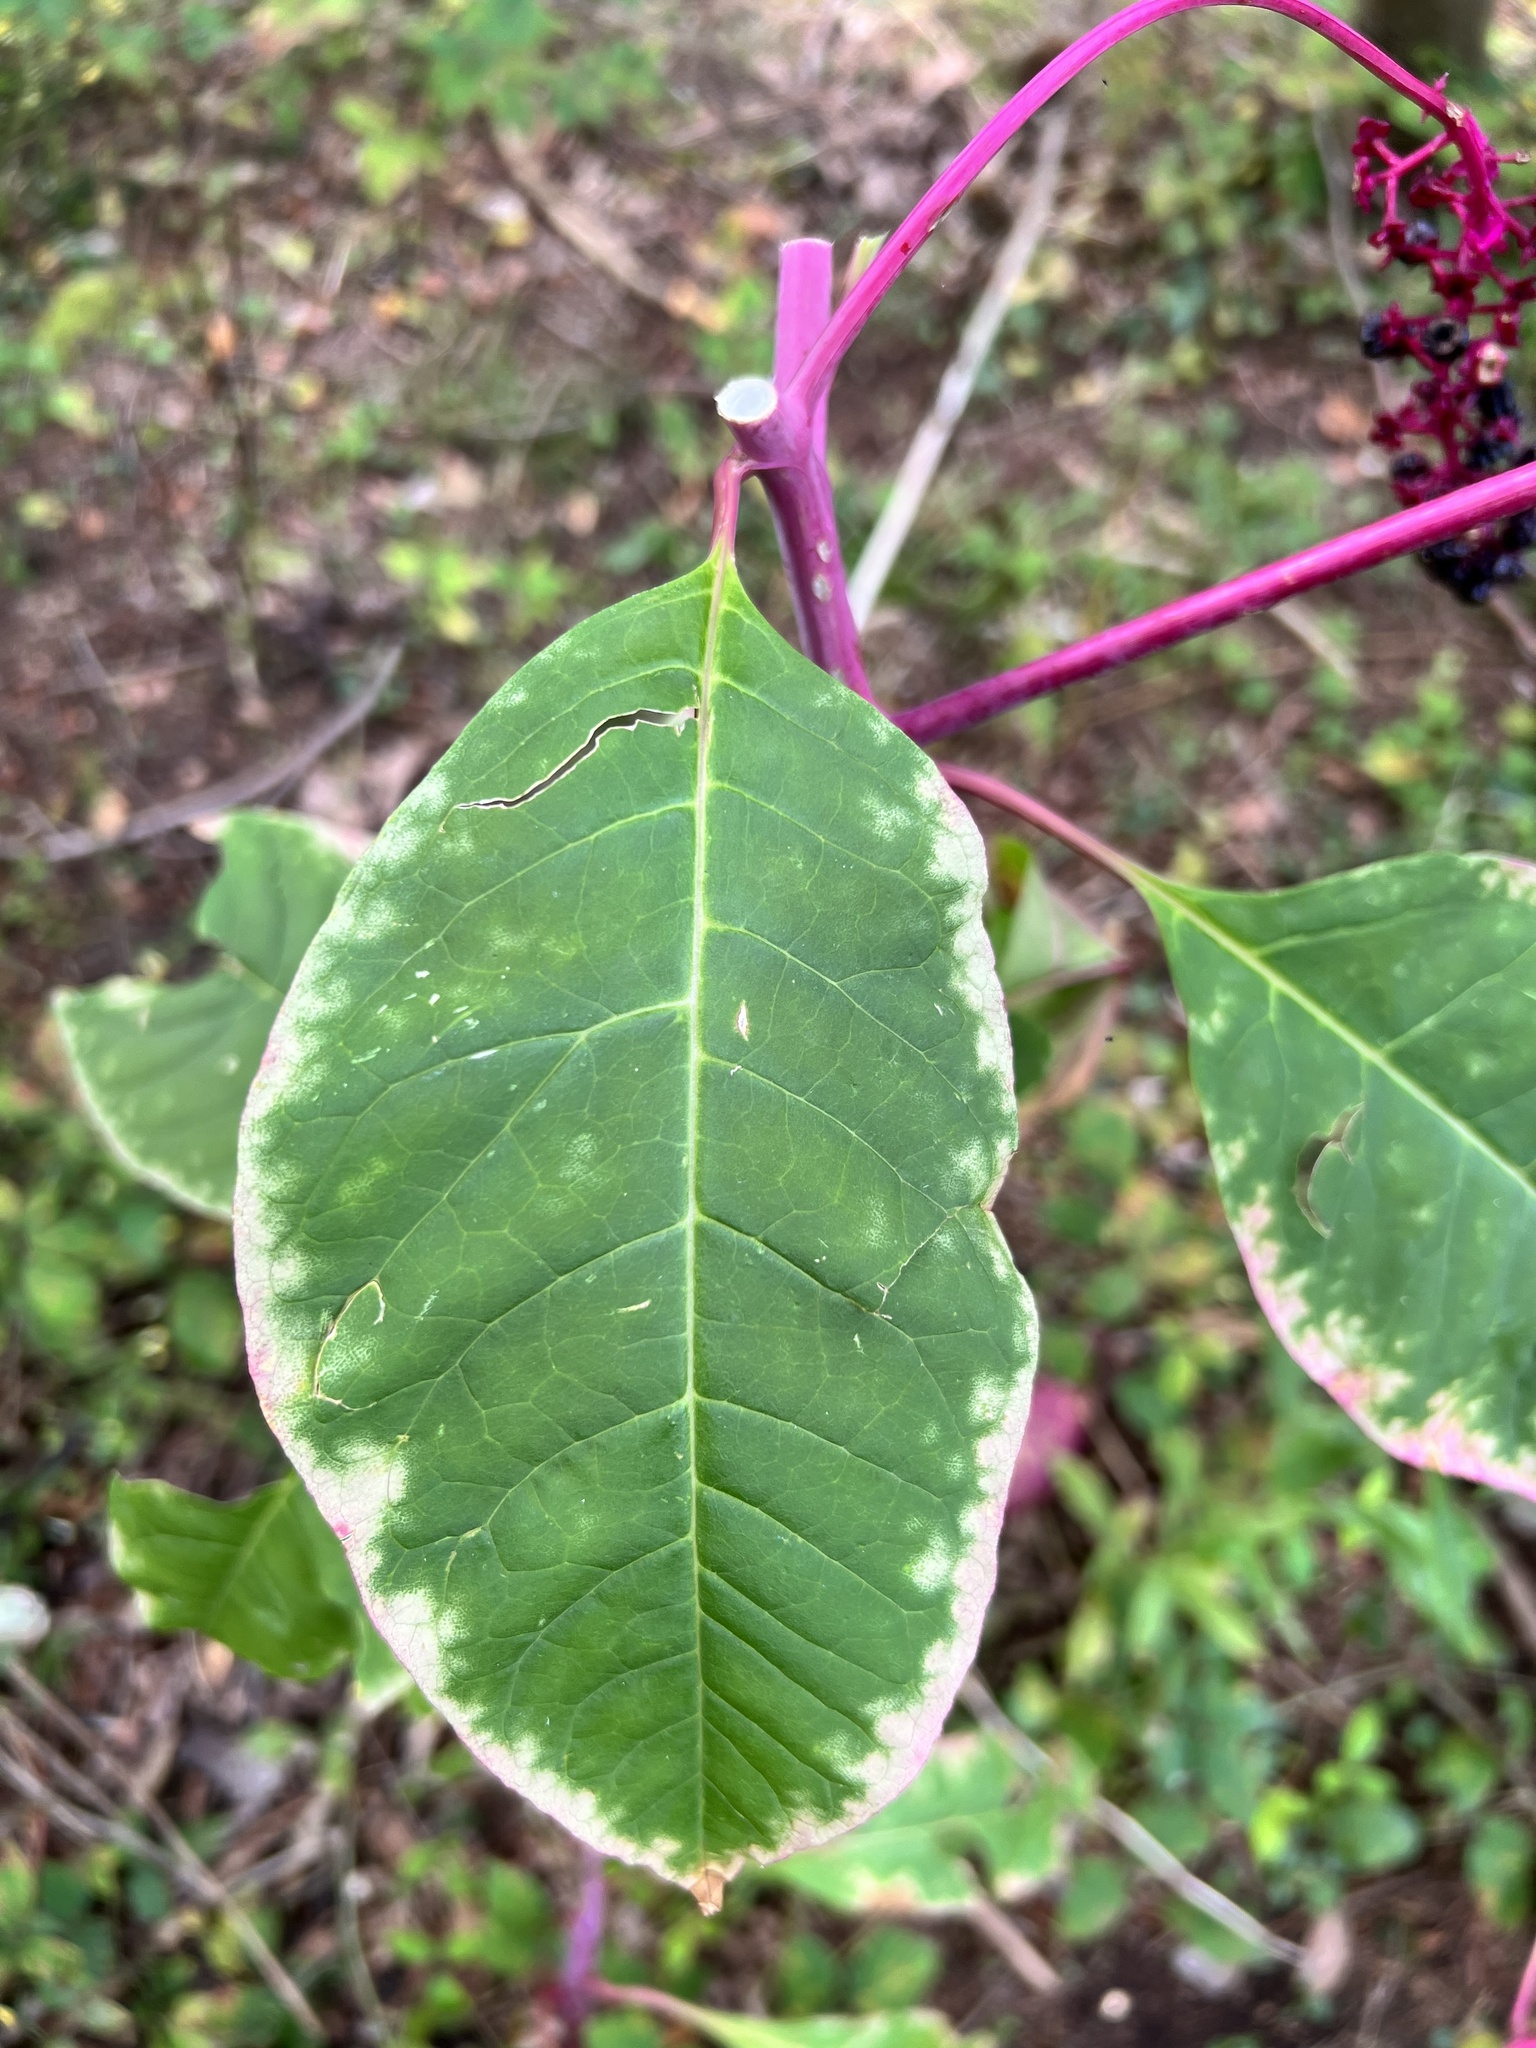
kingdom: Plantae
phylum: Tracheophyta
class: Magnoliopsida
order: Caryophyllales
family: Phytolaccaceae
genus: Phytolacca
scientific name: Phytolacca americana
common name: American pokeweed
